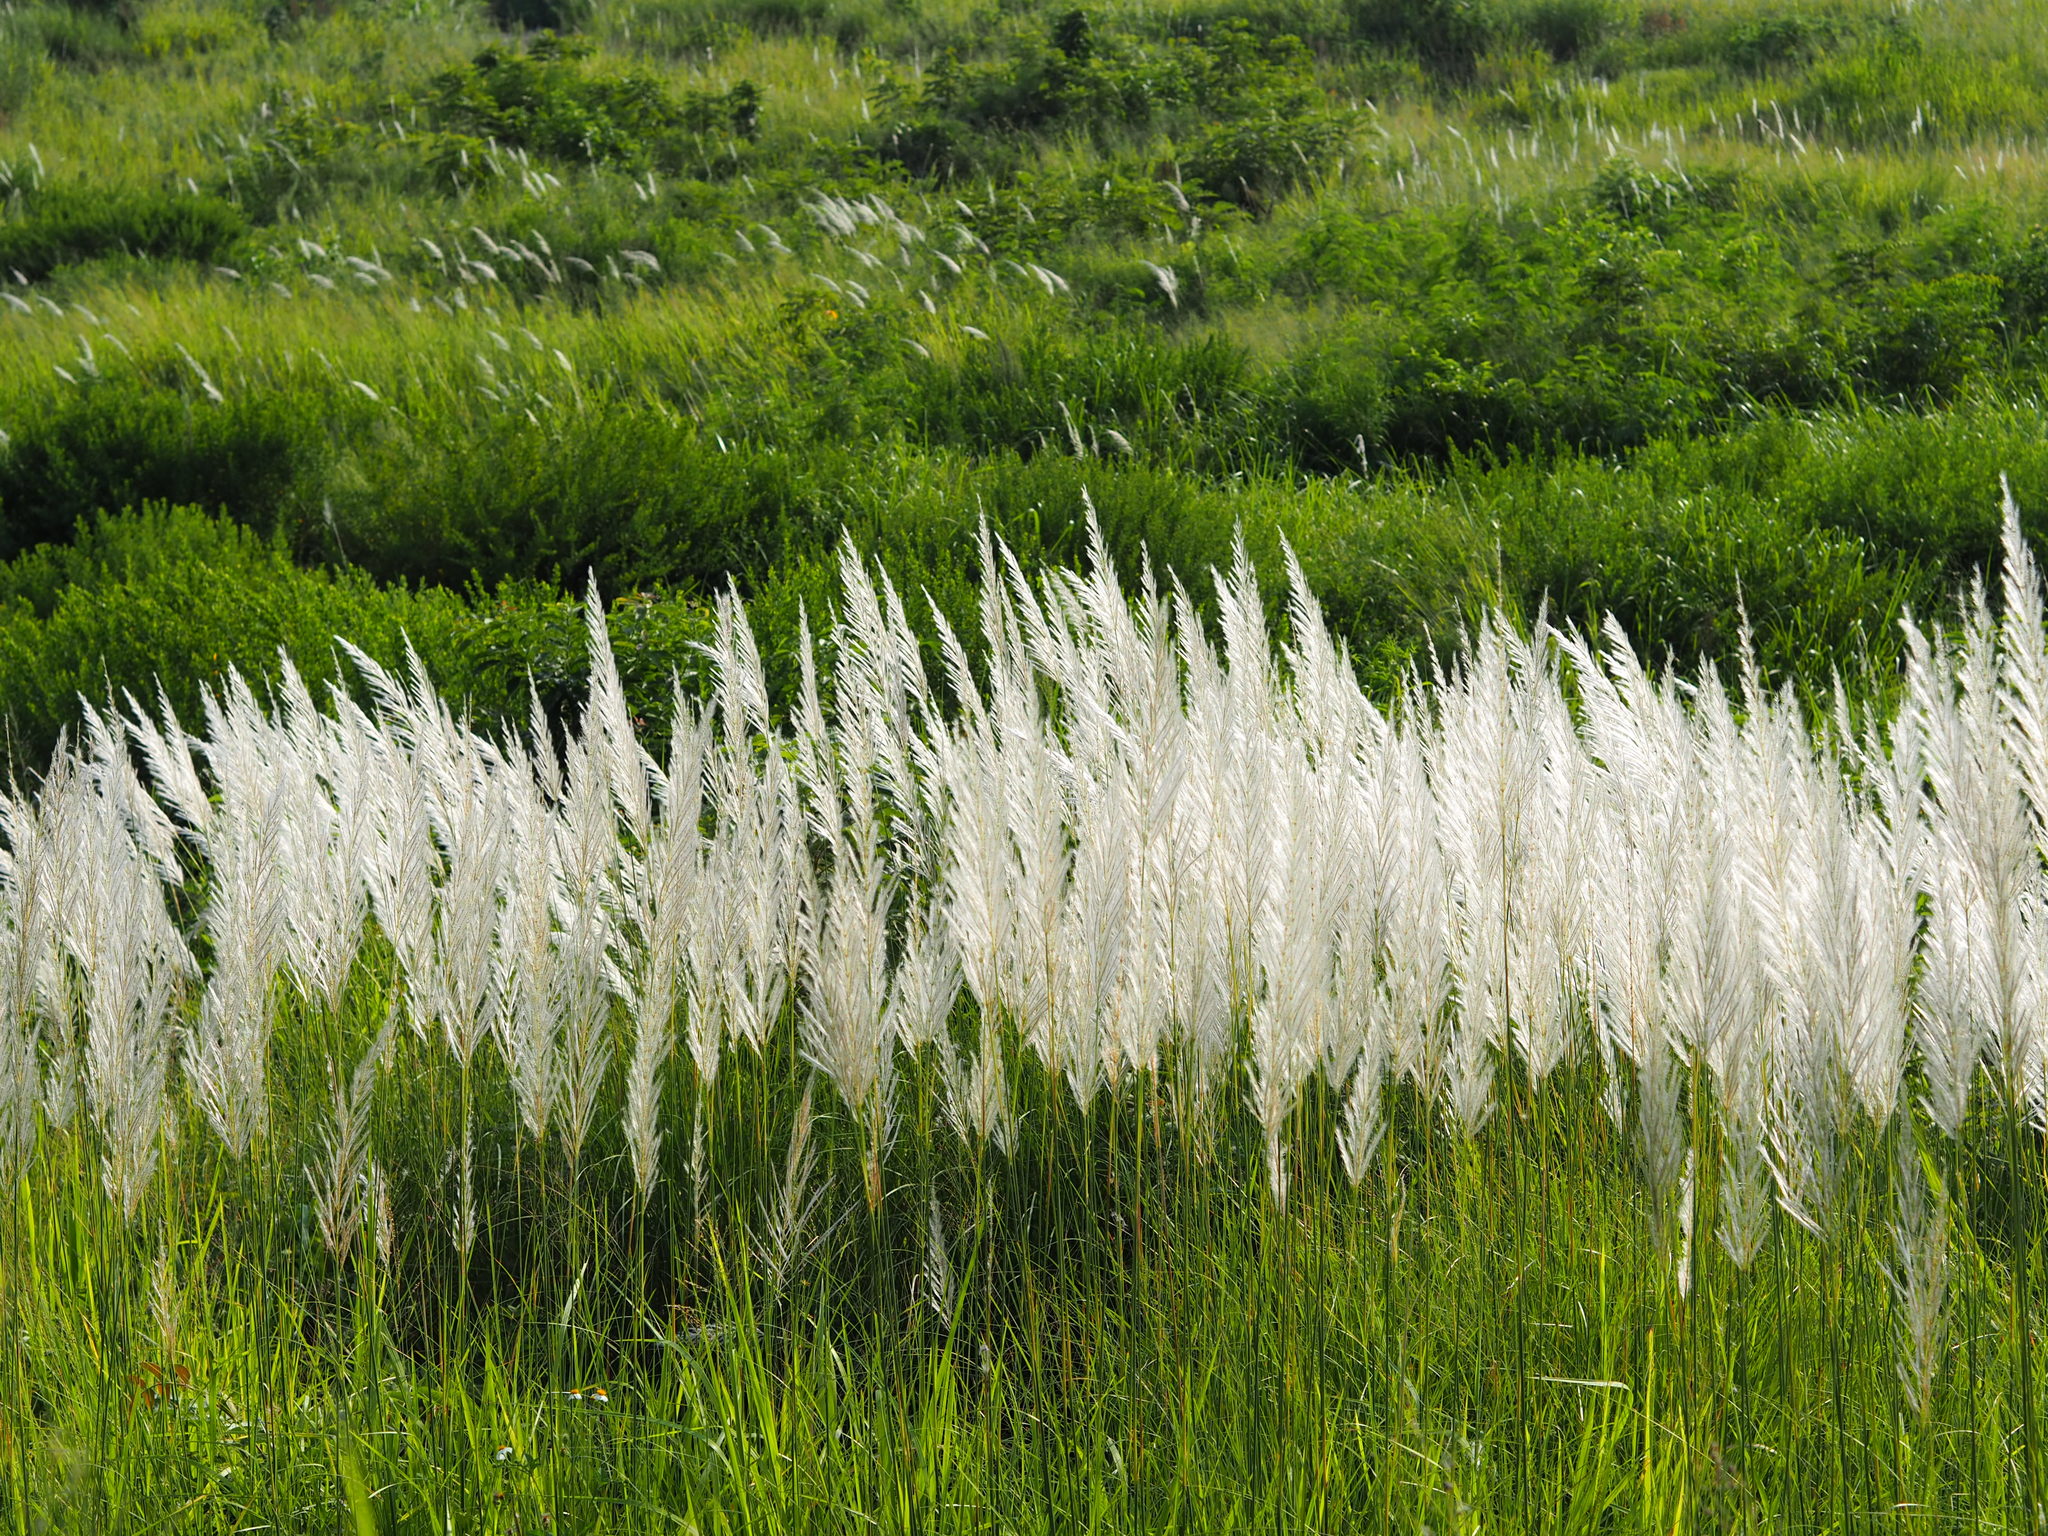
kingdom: Plantae
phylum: Tracheophyta
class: Liliopsida
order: Poales
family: Poaceae
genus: Saccharum
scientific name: Saccharum spontaneum
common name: Wild sugarcane
